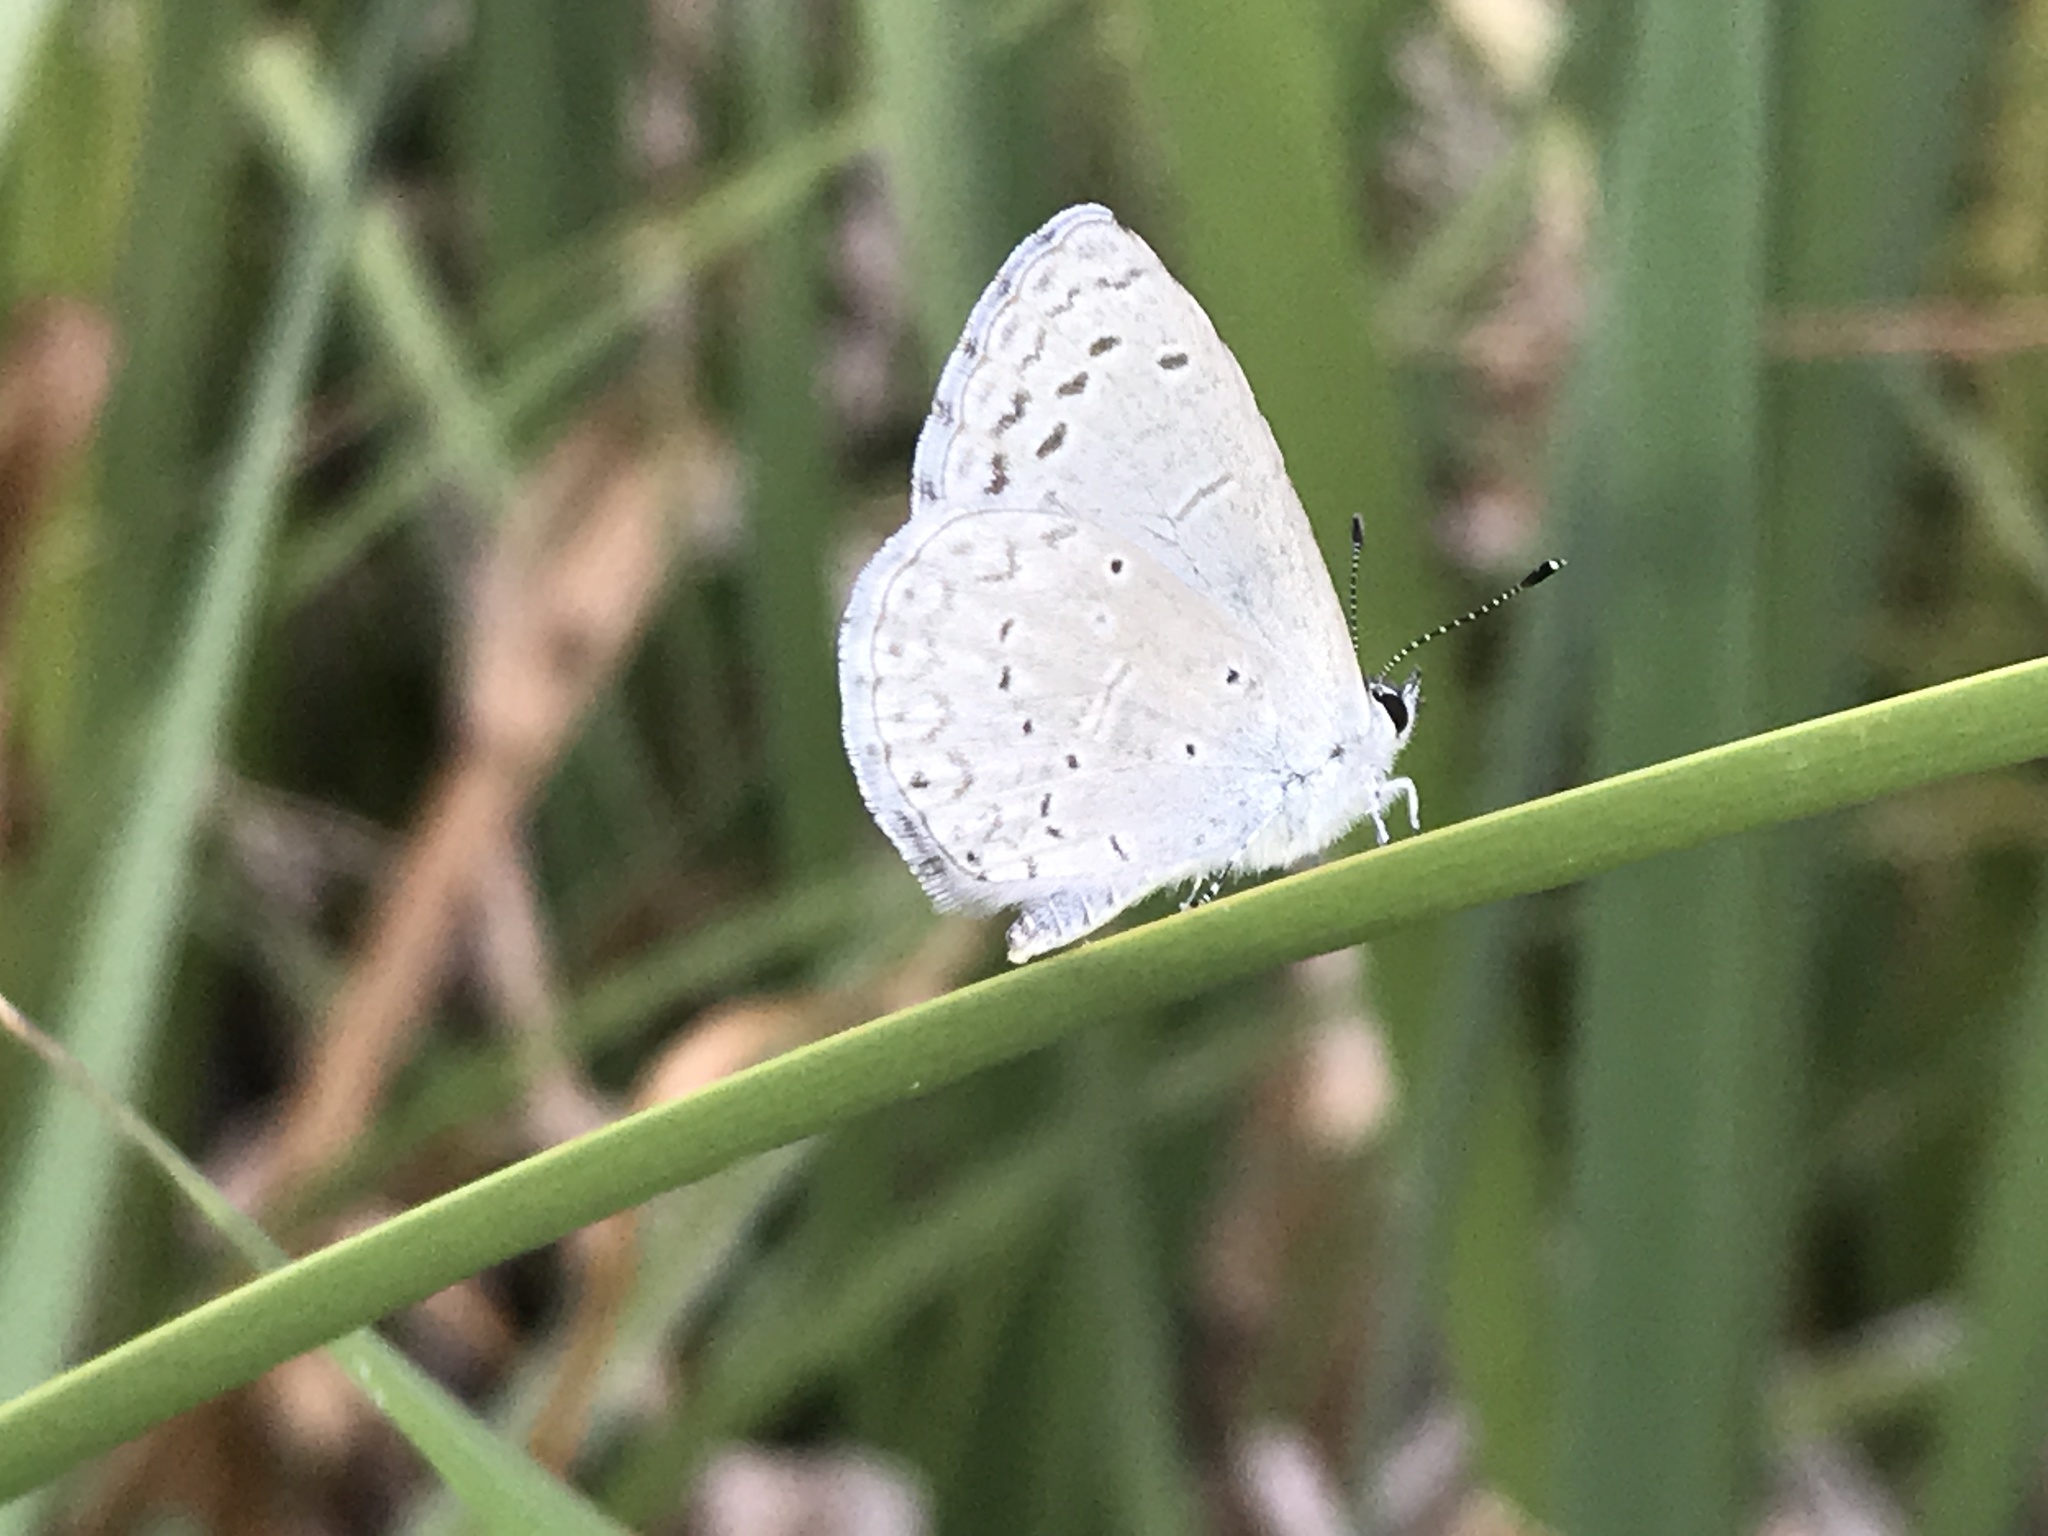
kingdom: Animalia
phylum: Arthropoda
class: Insecta
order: Lepidoptera
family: Lycaenidae
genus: Celastrina
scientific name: Celastrina argiolus
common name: Holly blue
